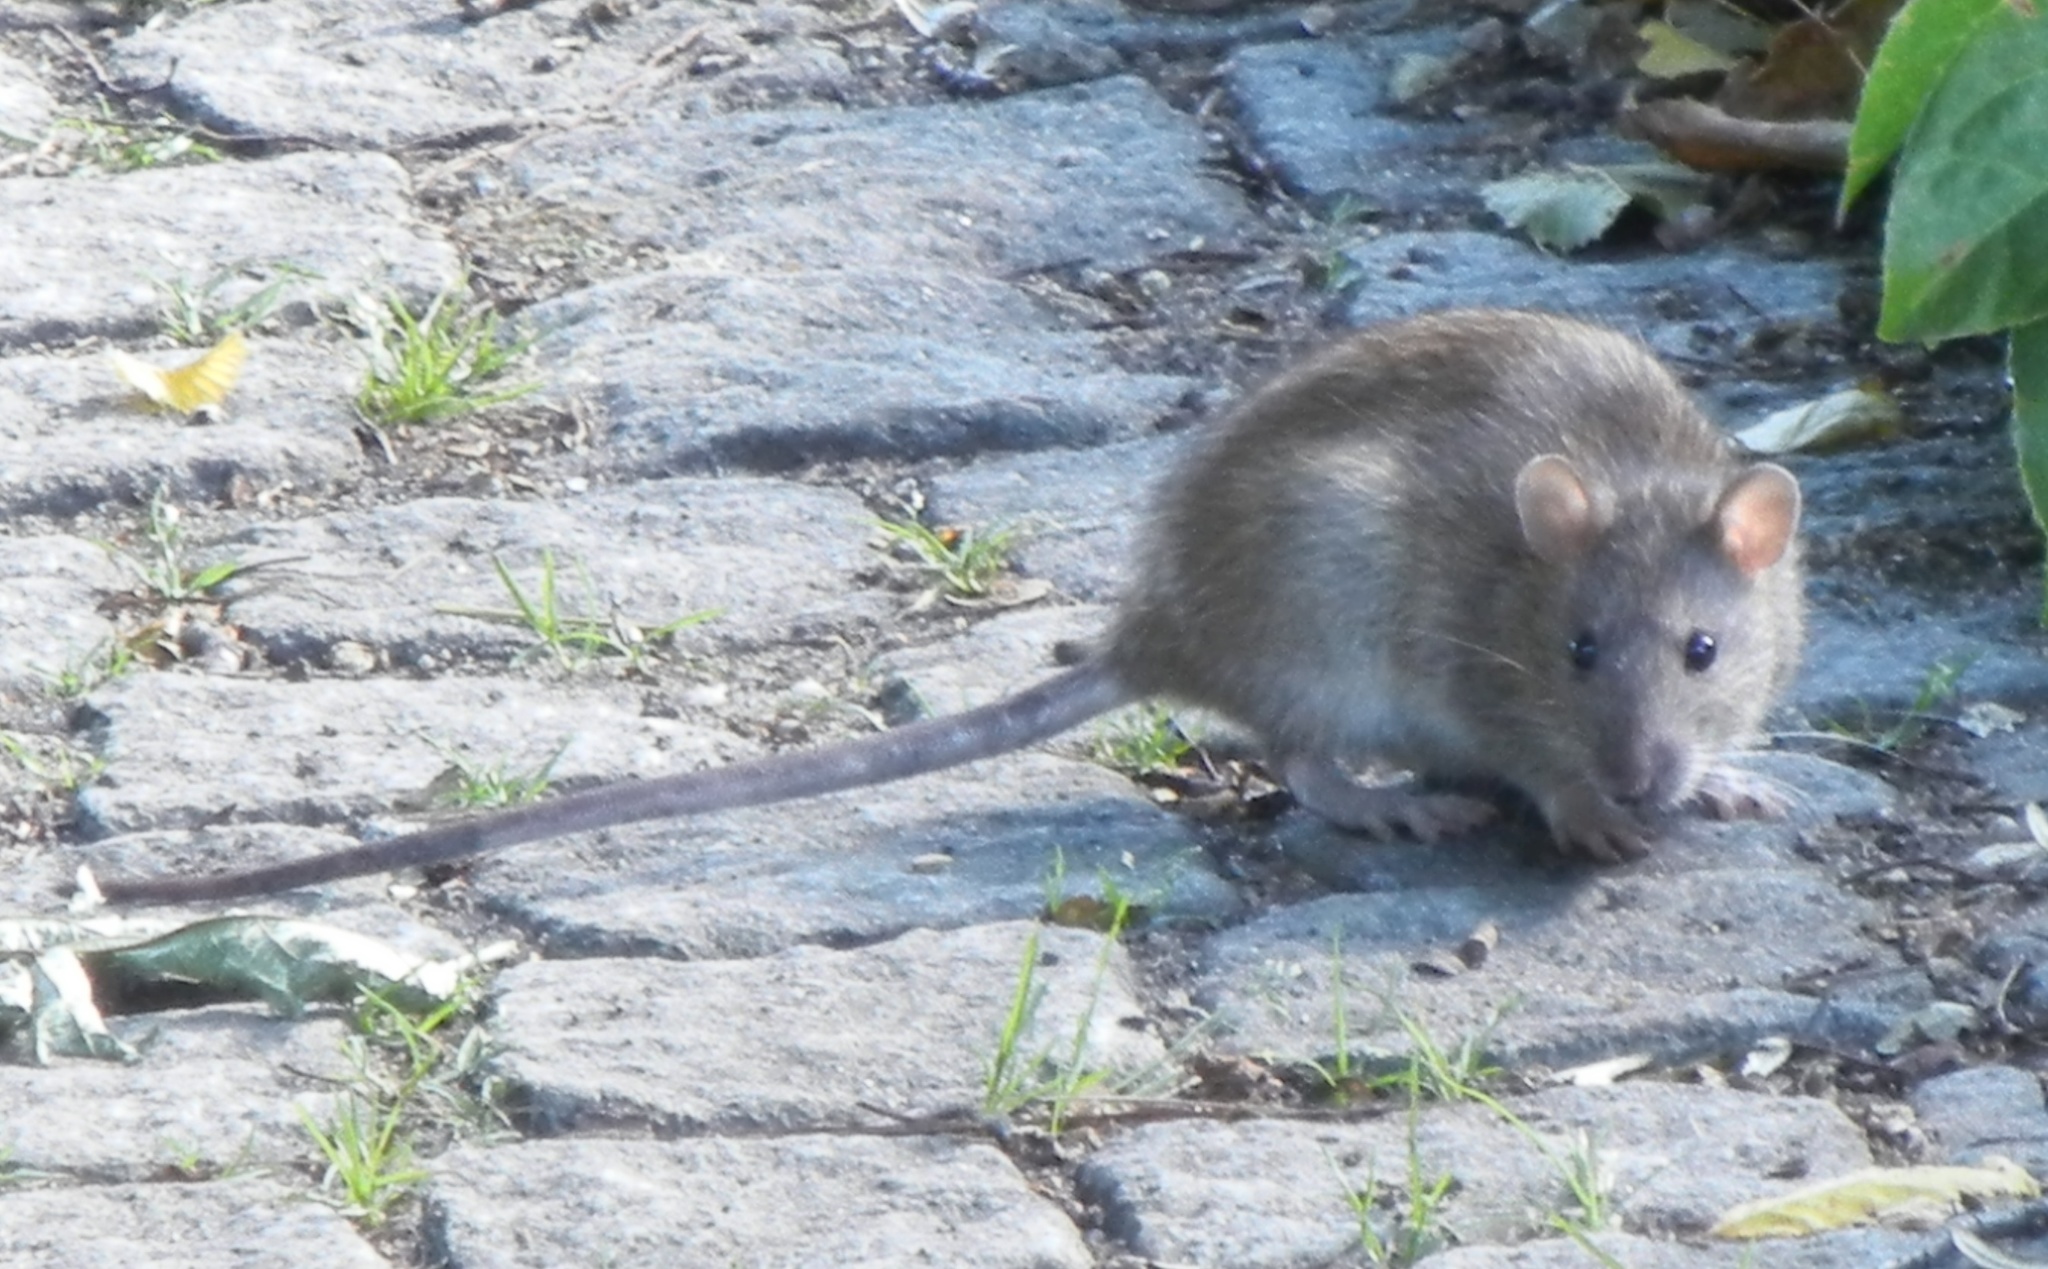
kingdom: Animalia
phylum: Chordata
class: Mammalia
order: Rodentia
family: Muridae
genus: Rattus
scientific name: Rattus norvegicus
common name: Brown rat
